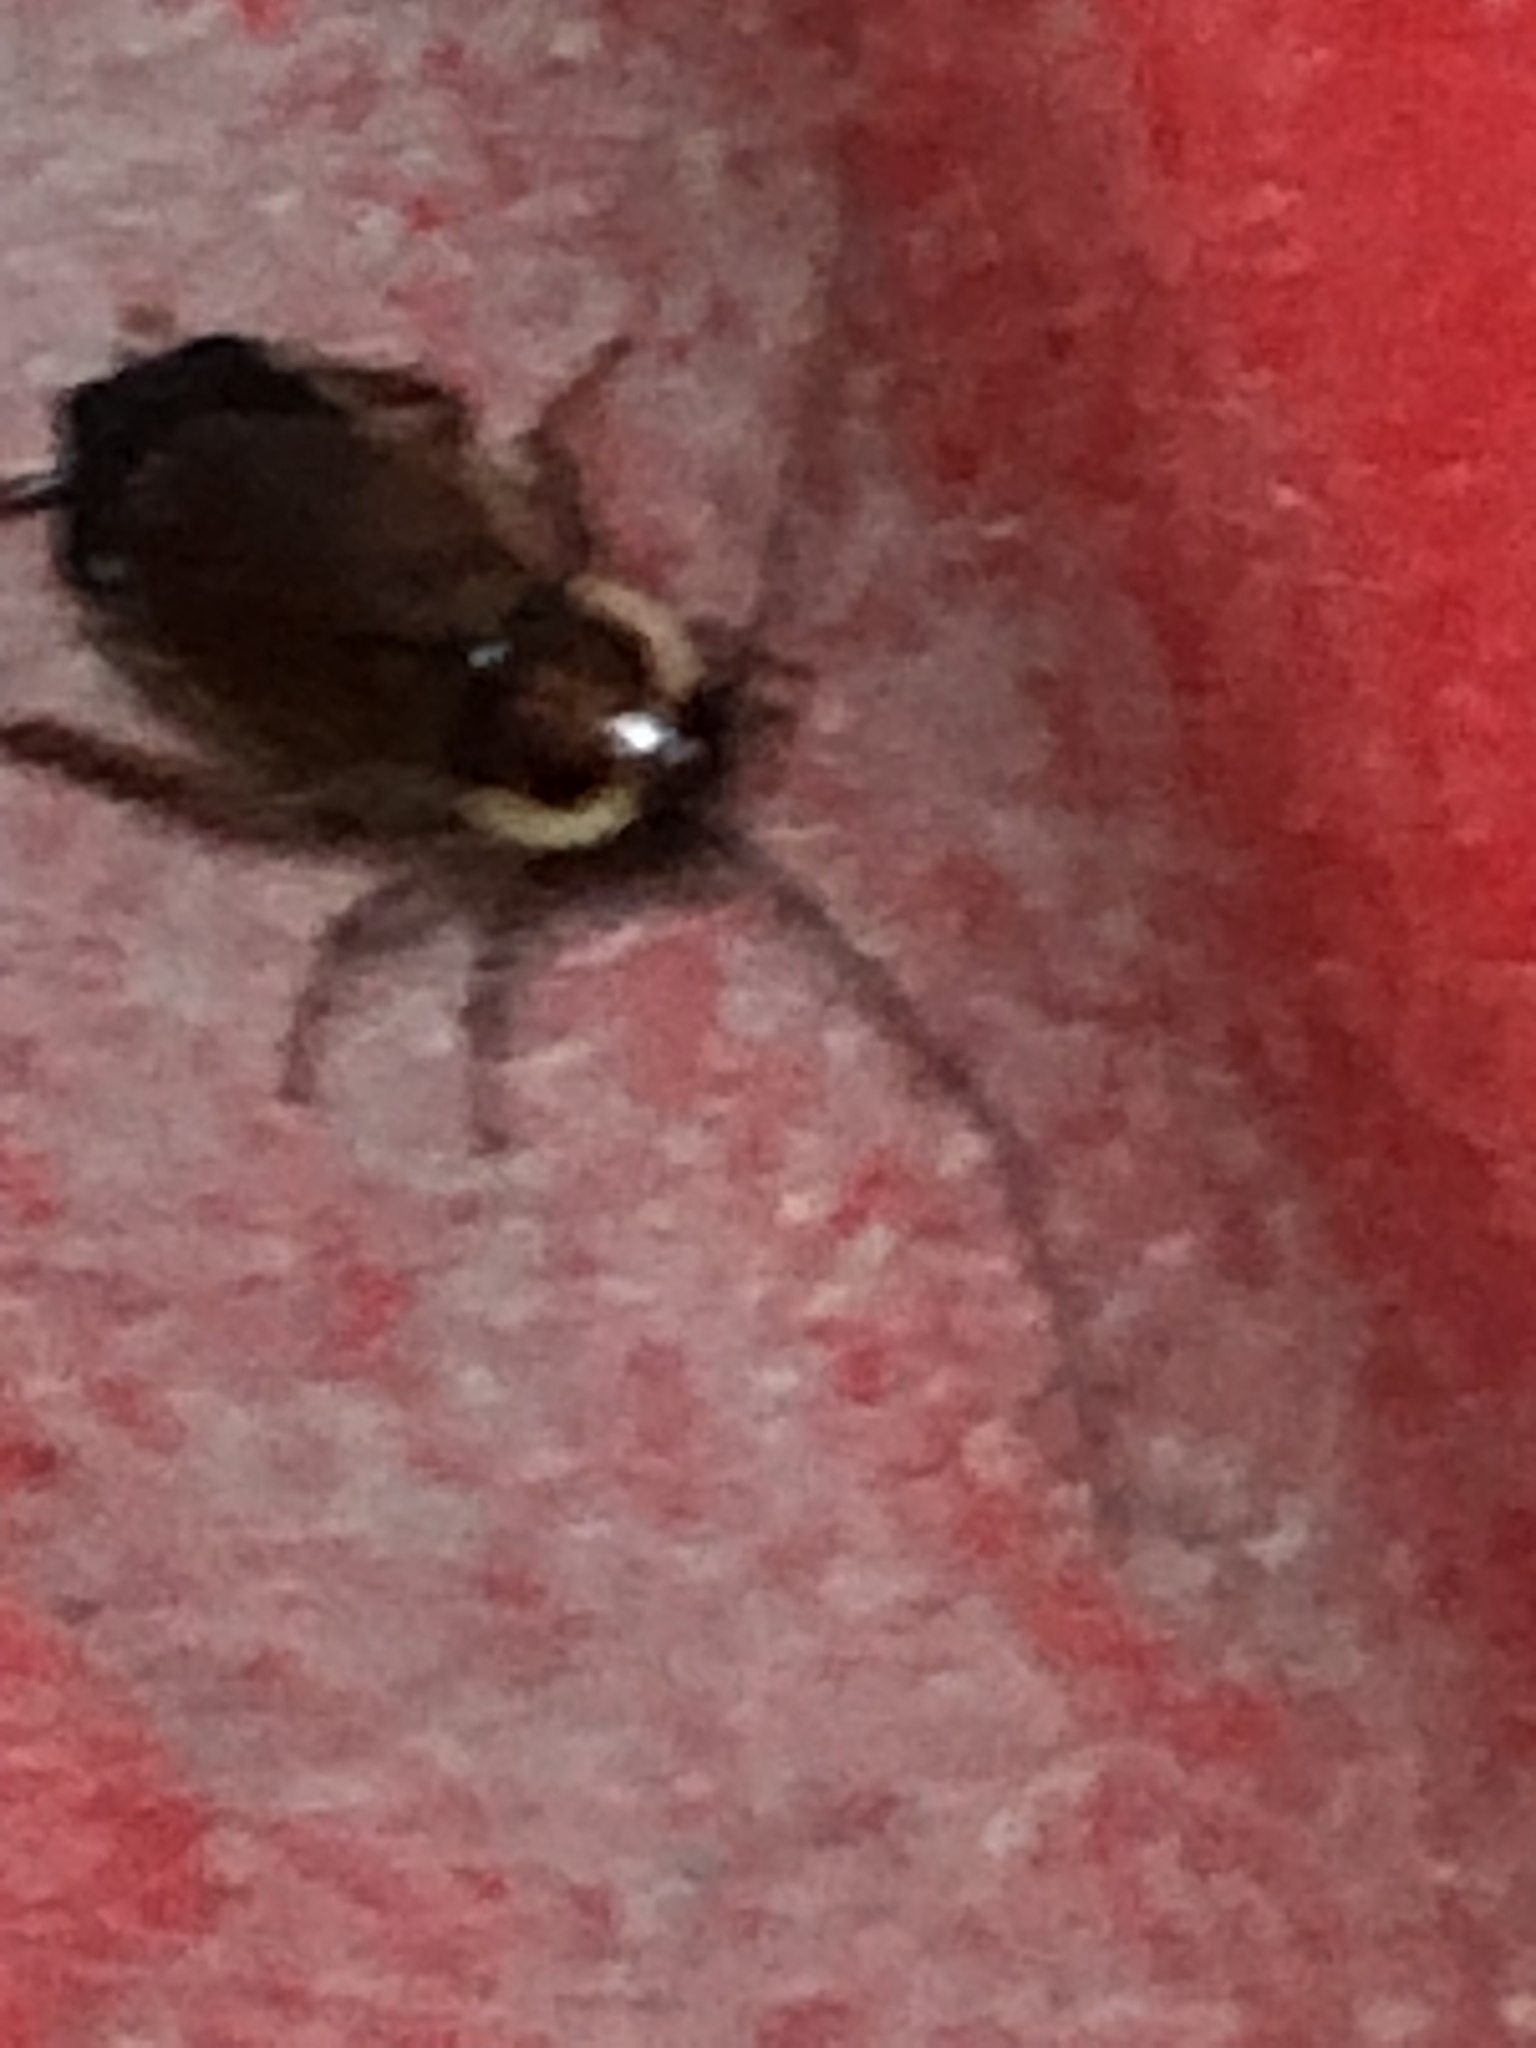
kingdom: Animalia
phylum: Arthropoda
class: Insecta
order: Blattodea
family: Ectobiidae
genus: Parcoblatta
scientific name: Parcoblatta pennsylvanica
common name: Pennsylvanian wood cockroach
